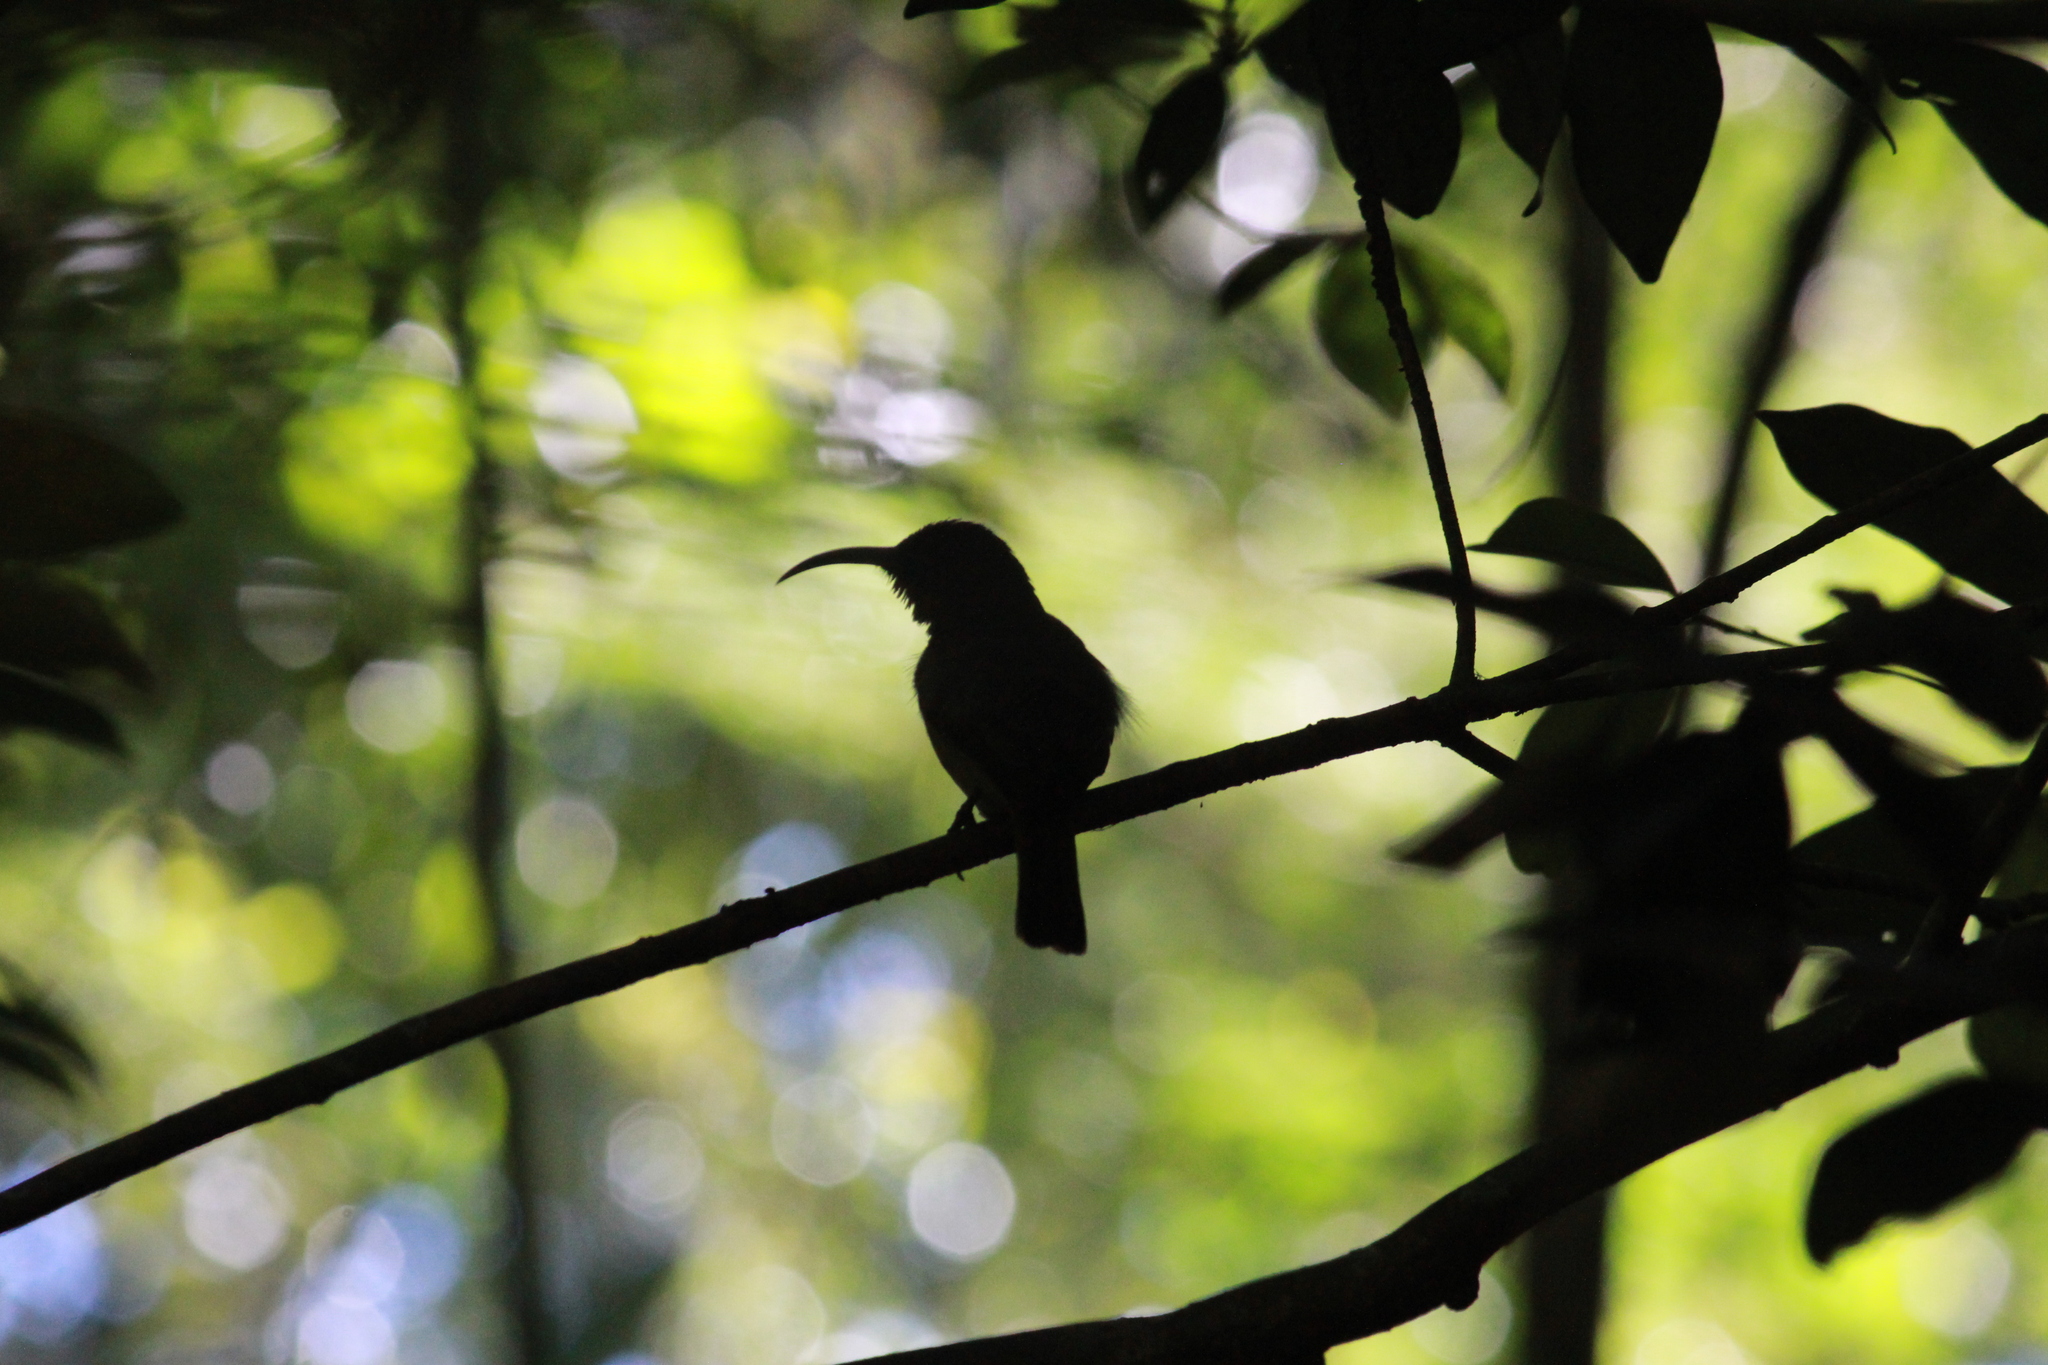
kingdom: Animalia
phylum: Chordata
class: Aves
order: Passeriformes
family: Nectariniidae
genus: Cyanomitra
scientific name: Cyanomitra olivacea
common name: Olive sunbird
